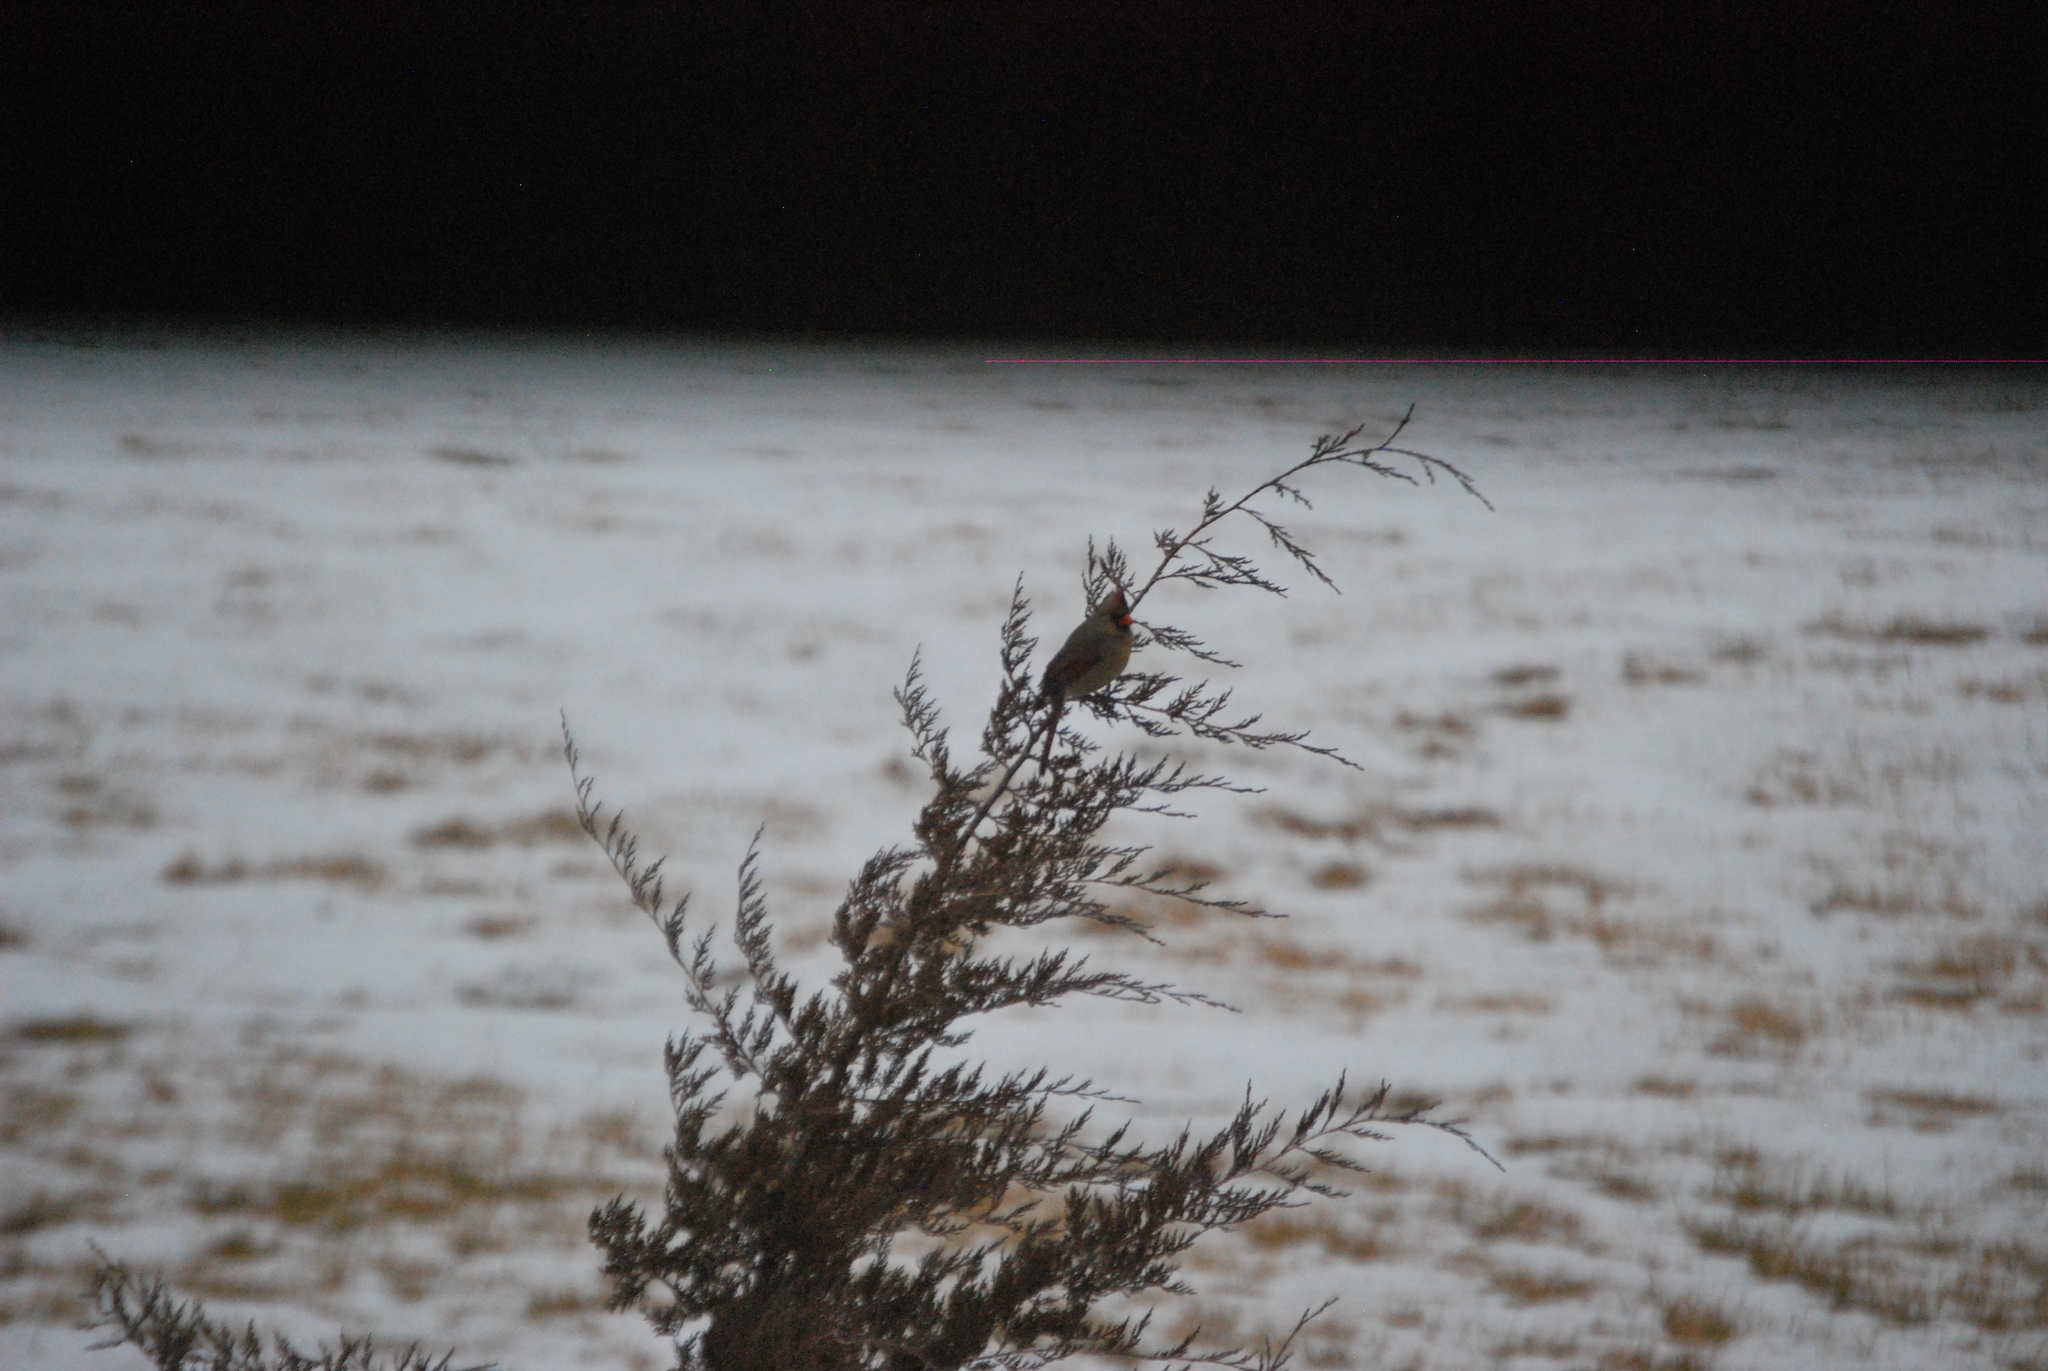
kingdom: Animalia
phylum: Chordata
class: Aves
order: Passeriformes
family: Cardinalidae
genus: Cardinalis
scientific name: Cardinalis cardinalis
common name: Northern cardinal
